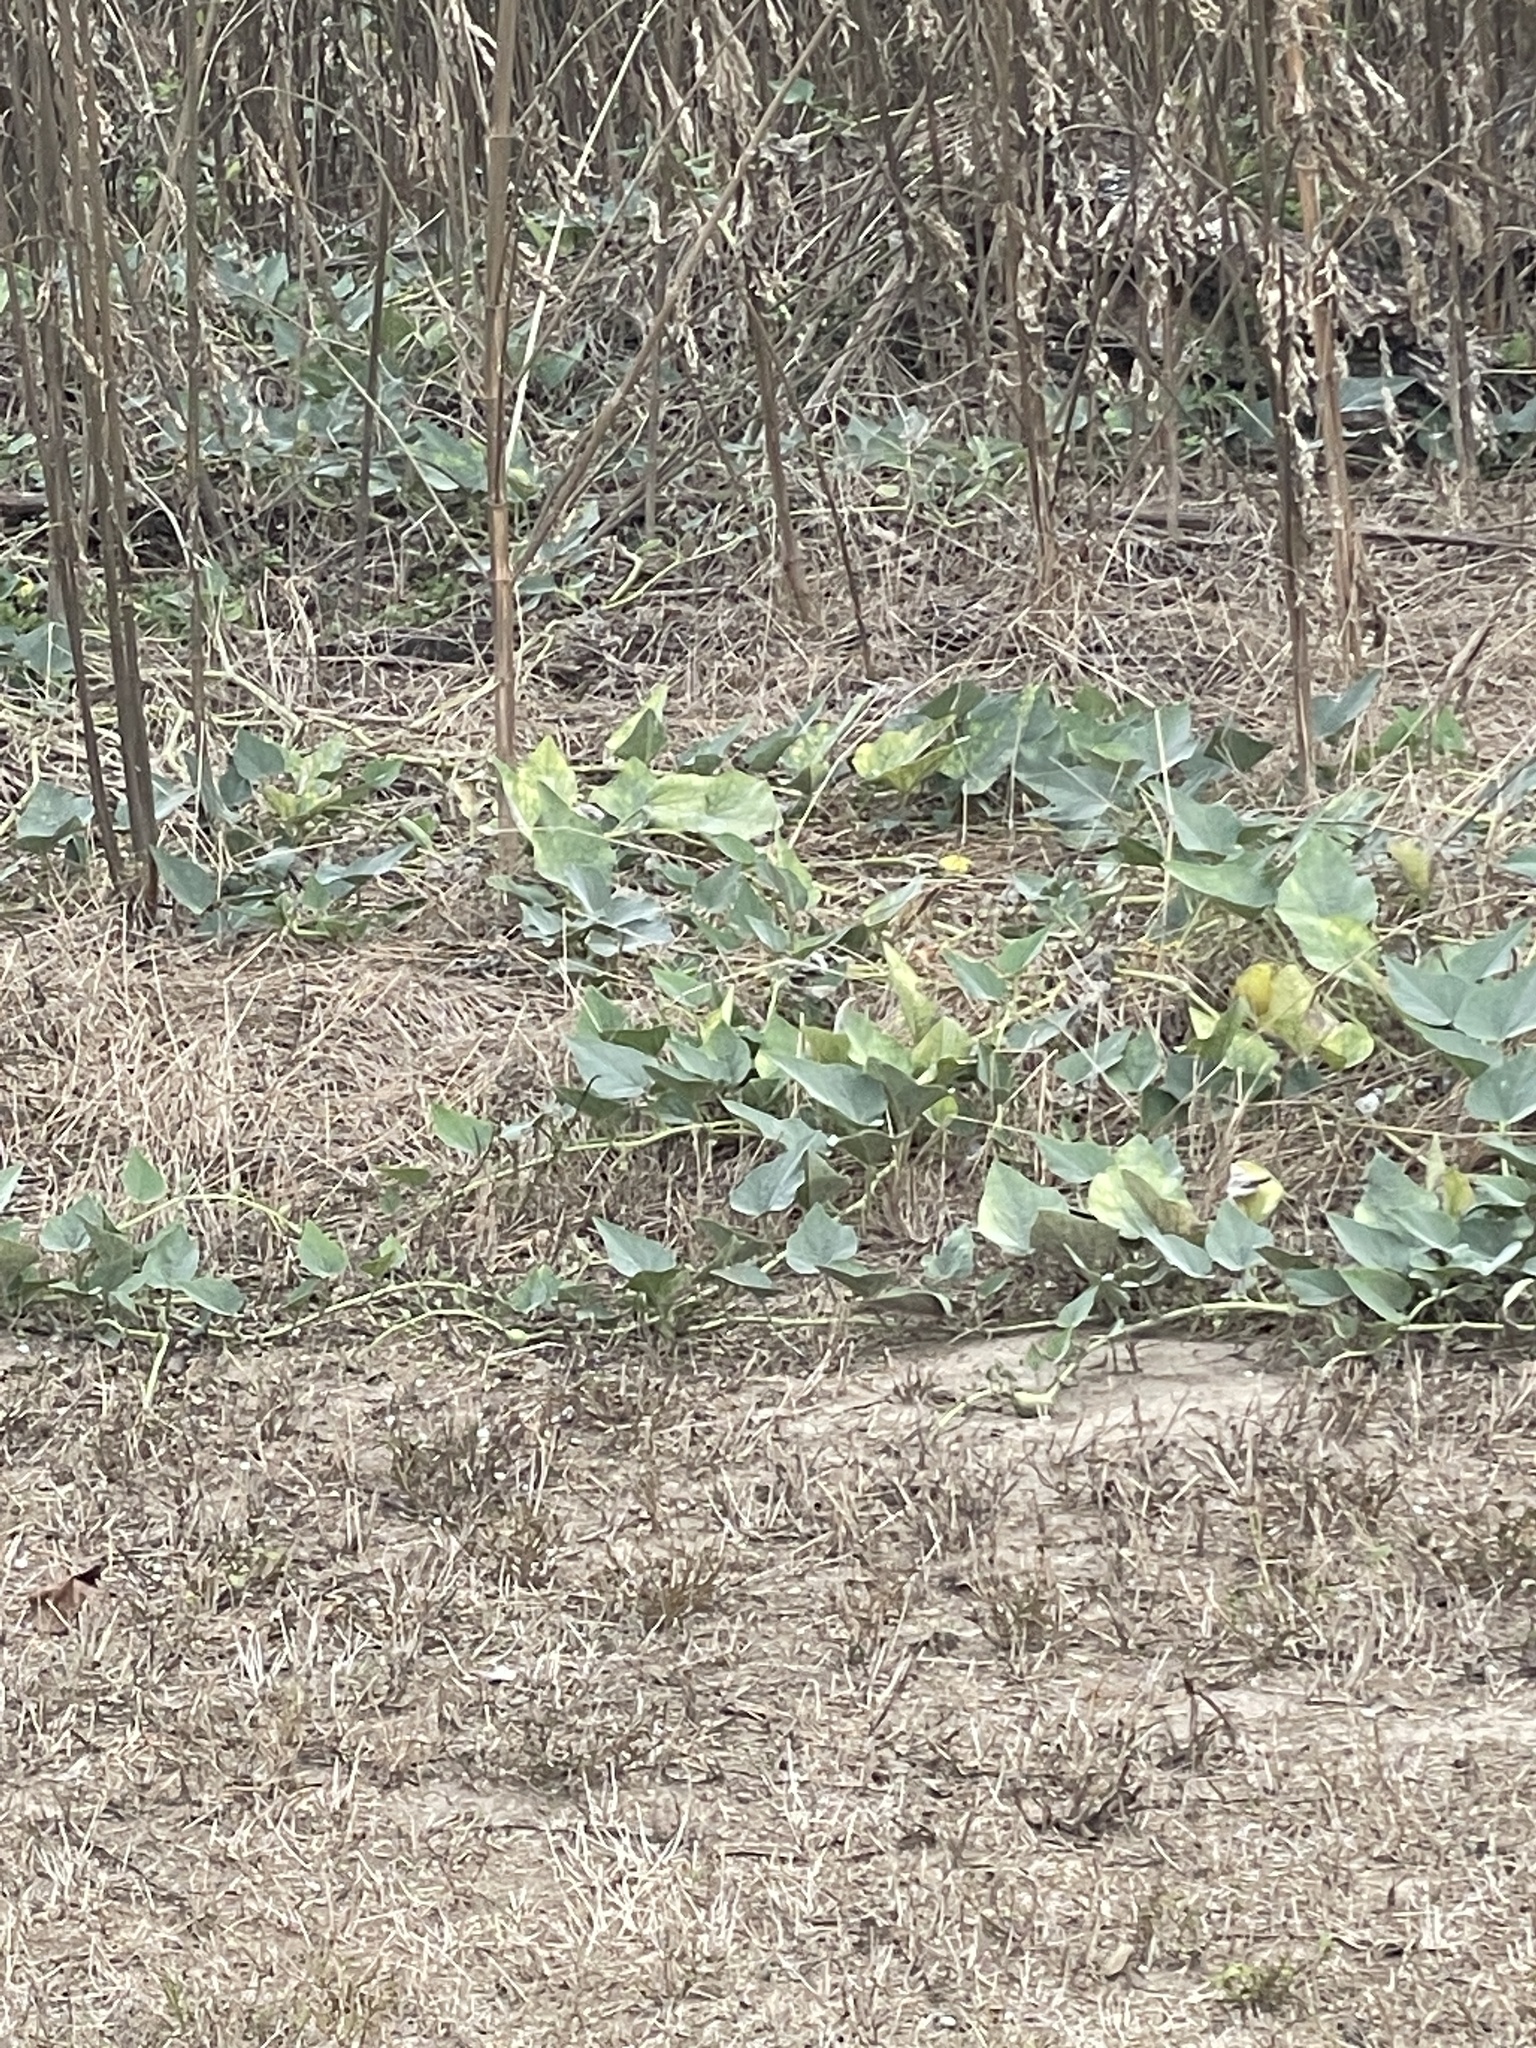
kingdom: Plantae
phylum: Tracheophyta
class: Magnoliopsida
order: Cucurbitales
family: Cucurbitaceae
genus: Cucurbita
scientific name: Cucurbita foetidissima
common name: Buffalo gourd
